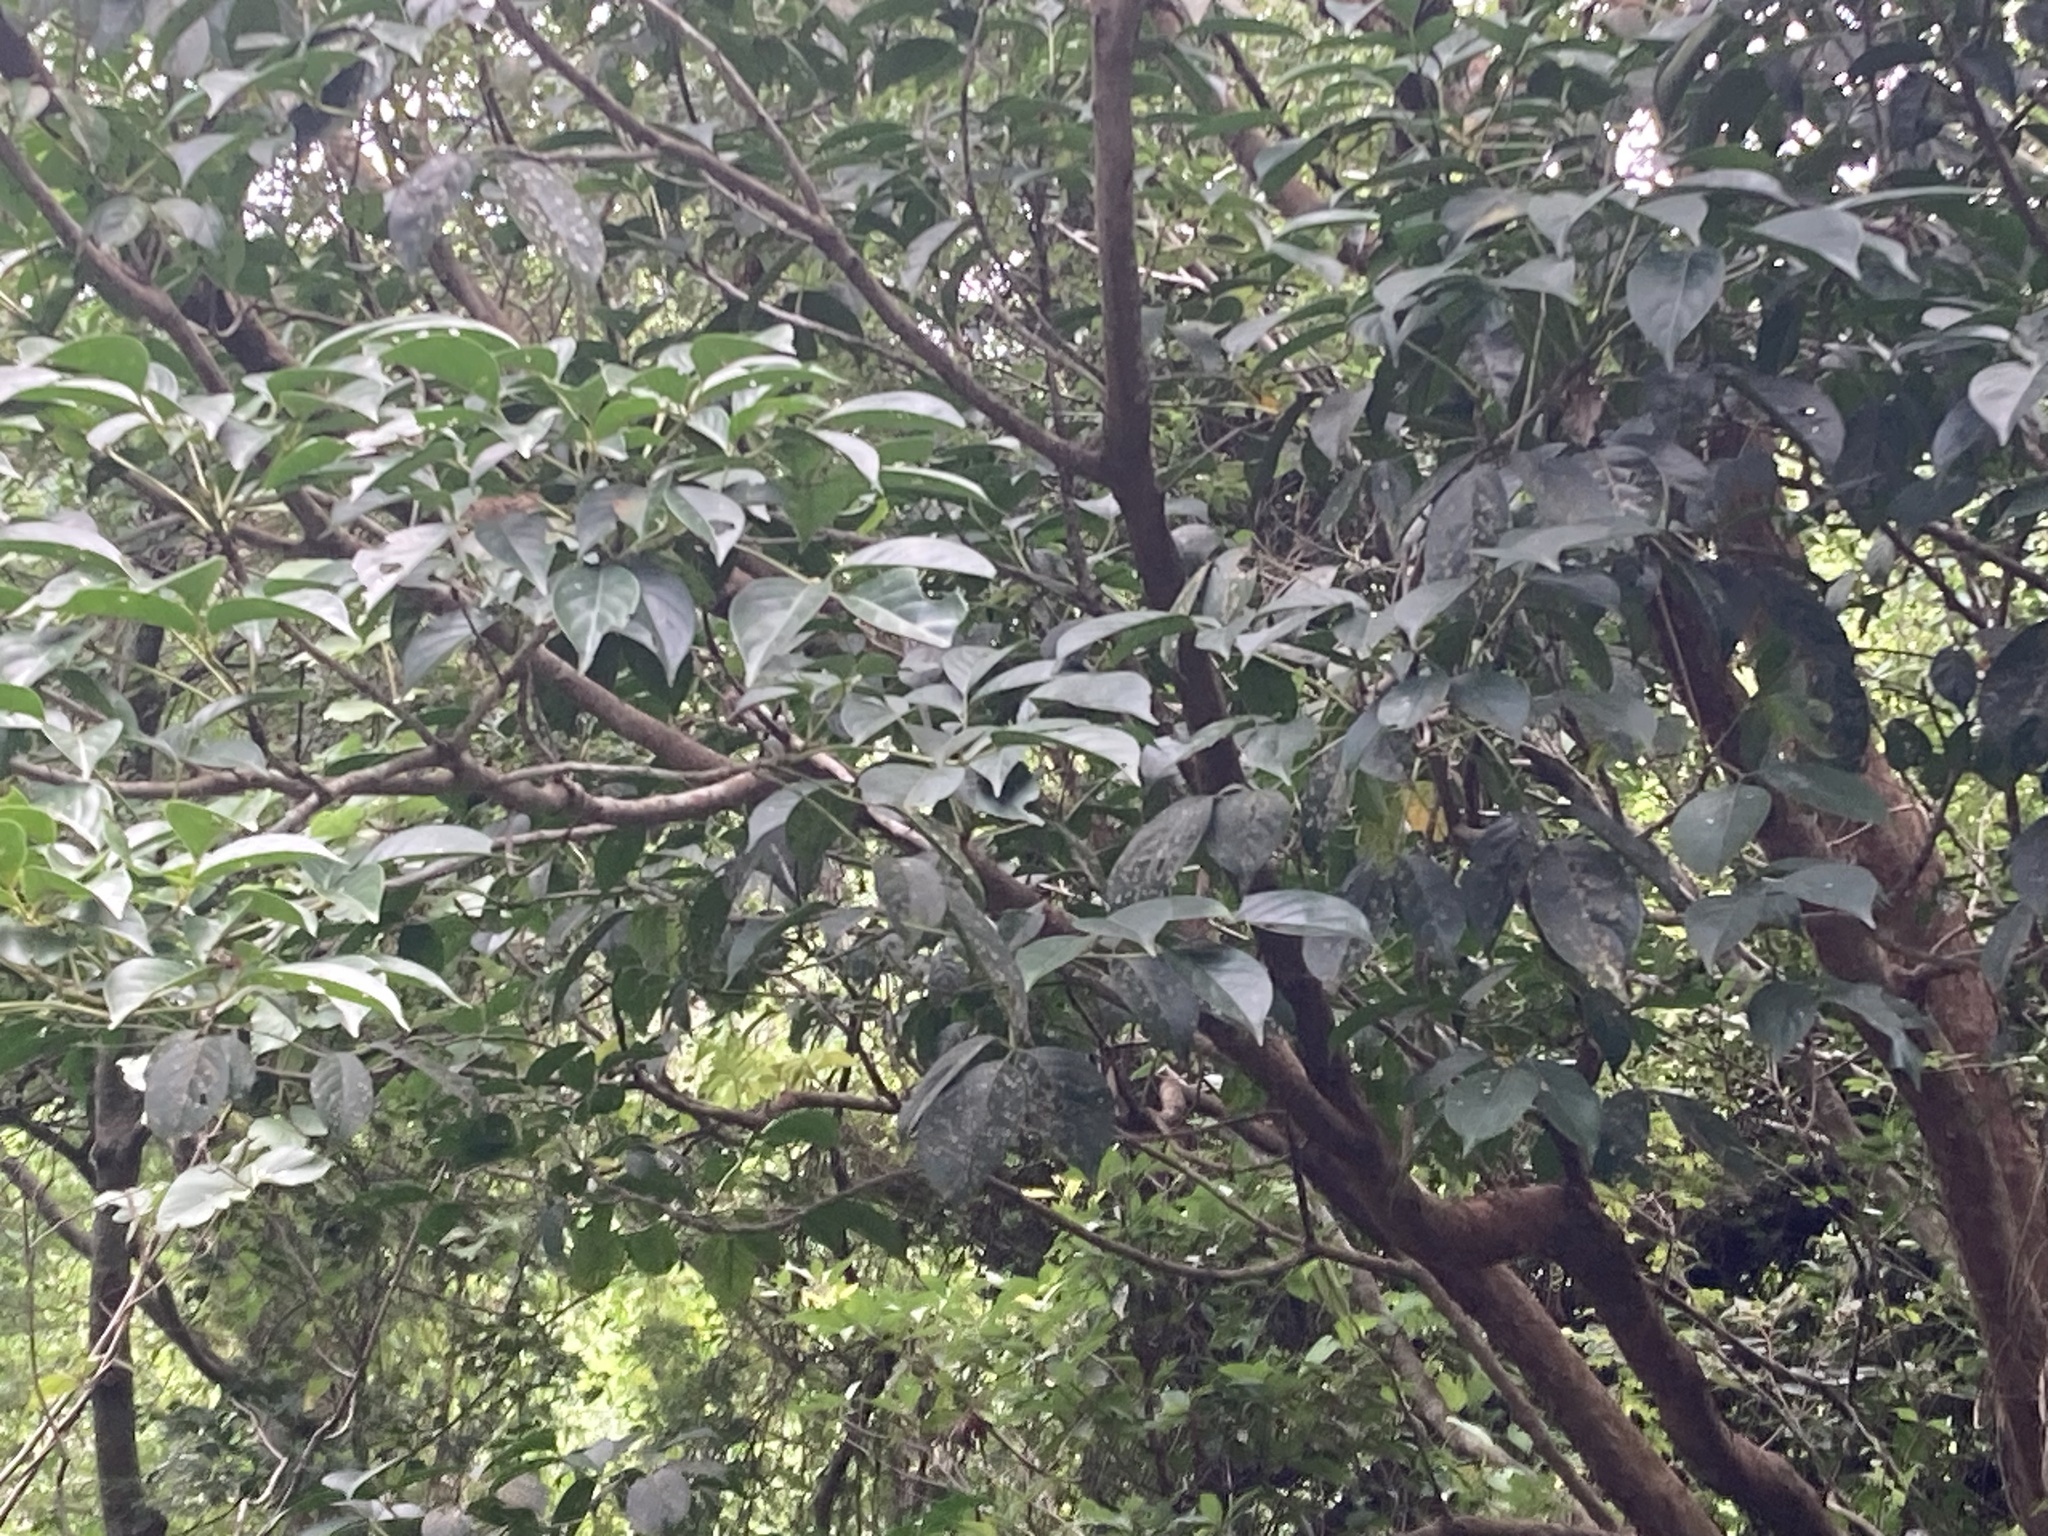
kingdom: Plantae
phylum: Tracheophyta
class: Magnoliopsida
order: Malpighiales
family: Phyllanthaceae
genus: Bischofia
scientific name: Bischofia javanica
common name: Javanese bishopwood
